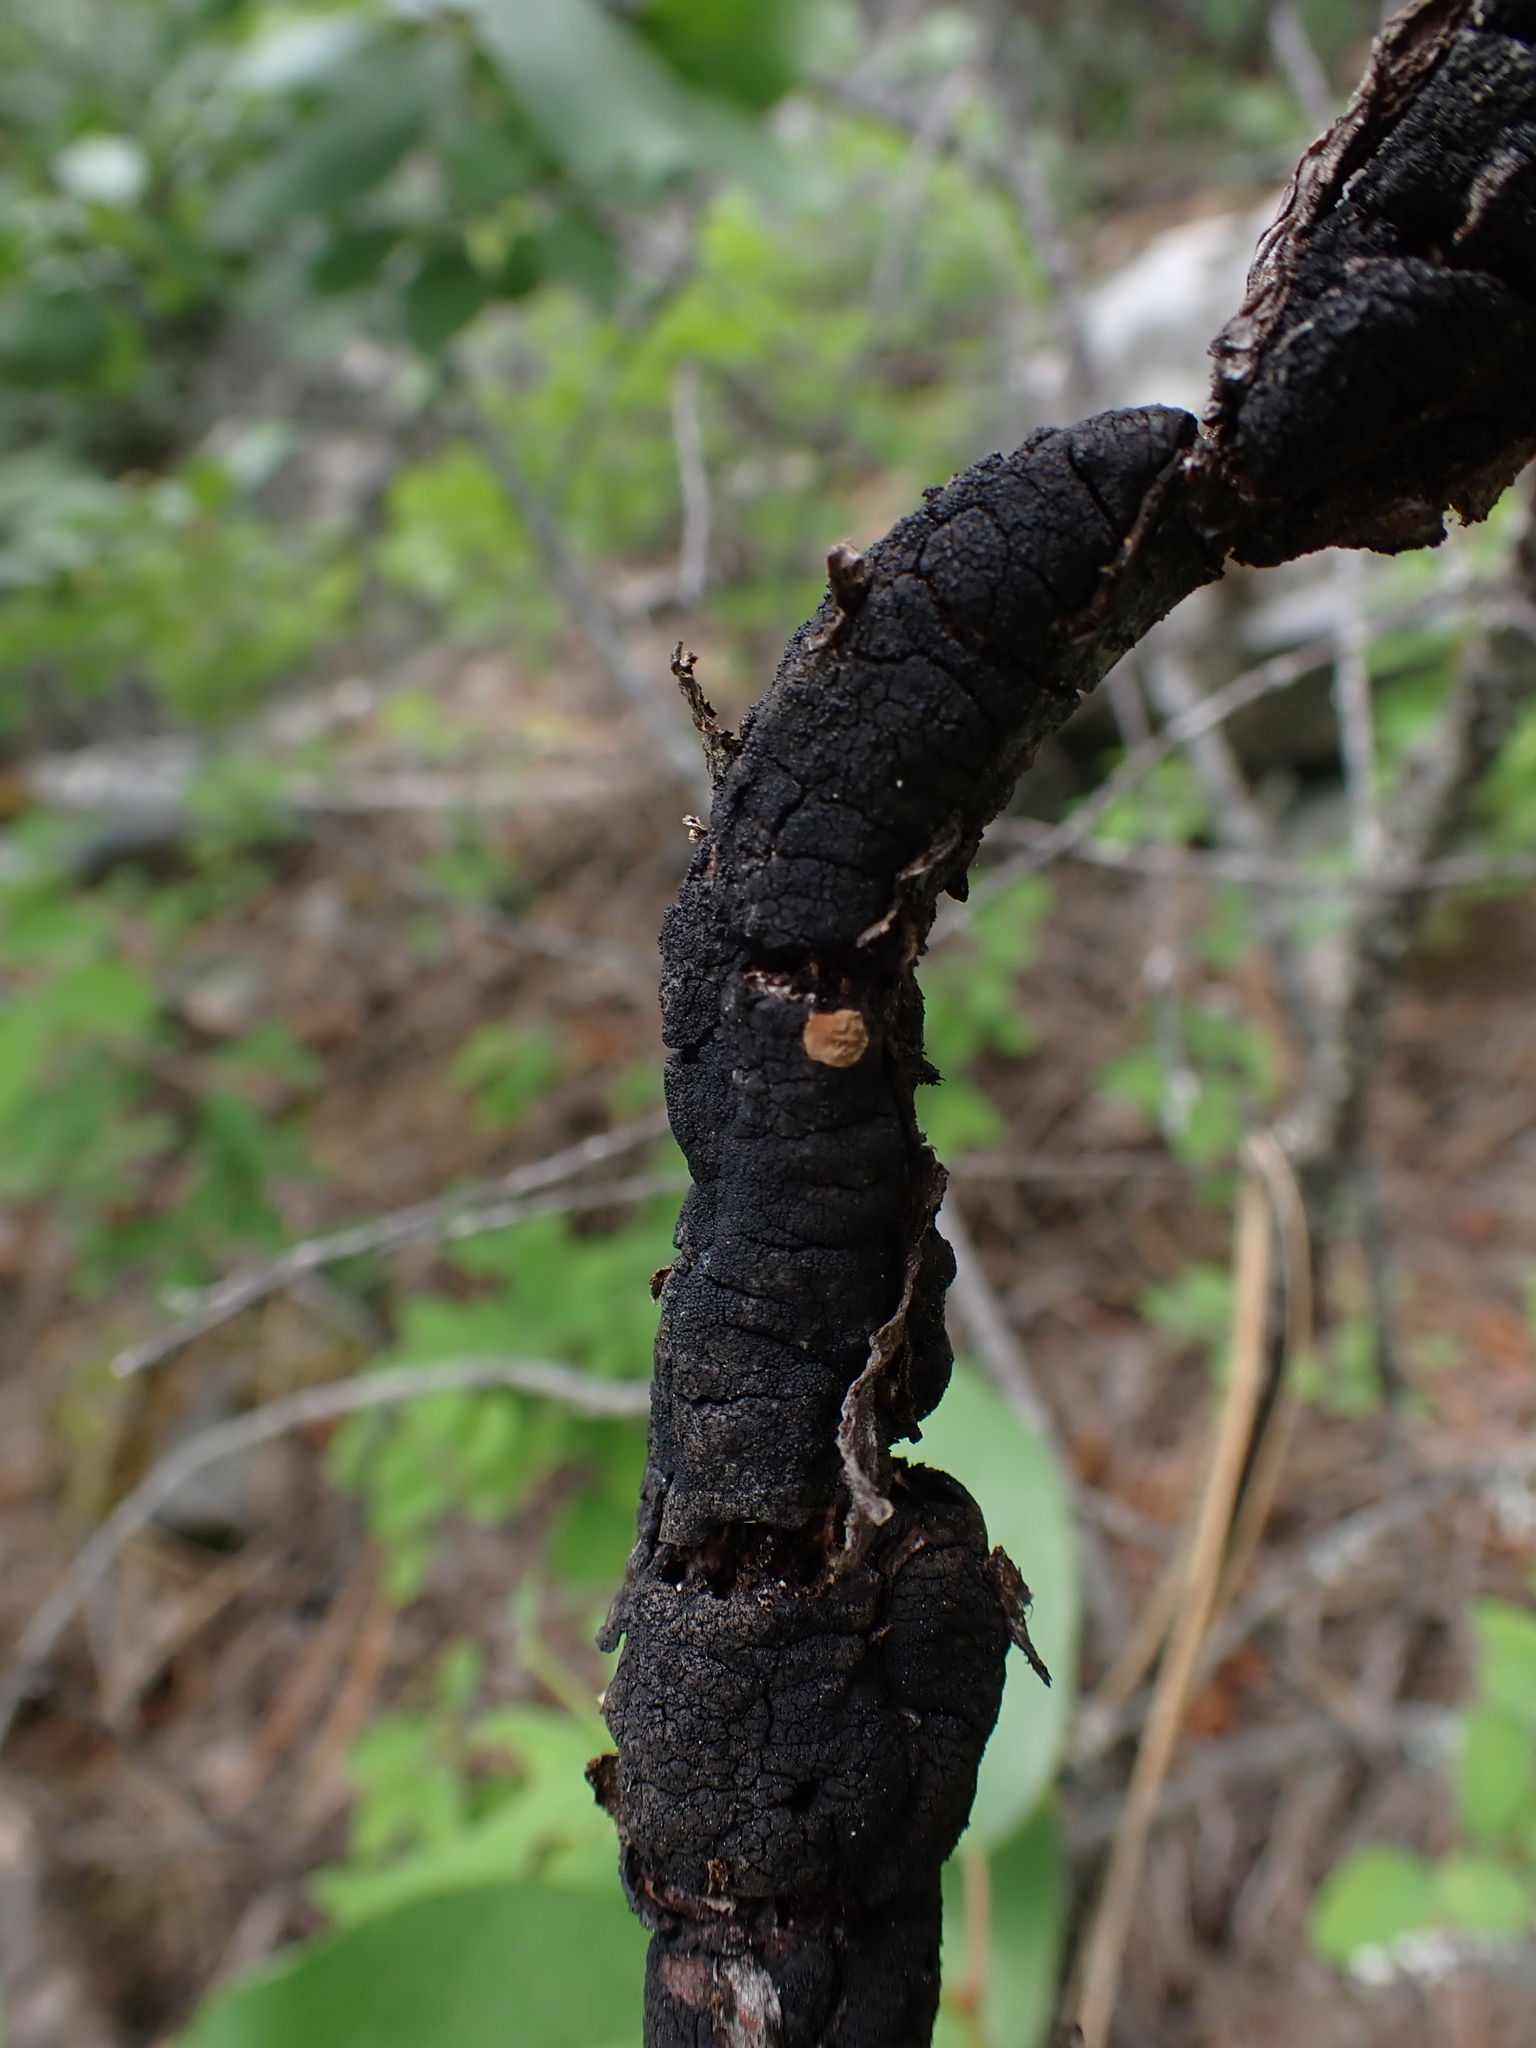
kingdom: Fungi
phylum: Ascomycota
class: Dothideomycetes
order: Venturiales
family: Venturiaceae
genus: Apiosporina
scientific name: Apiosporina morbosa
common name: Black knot
